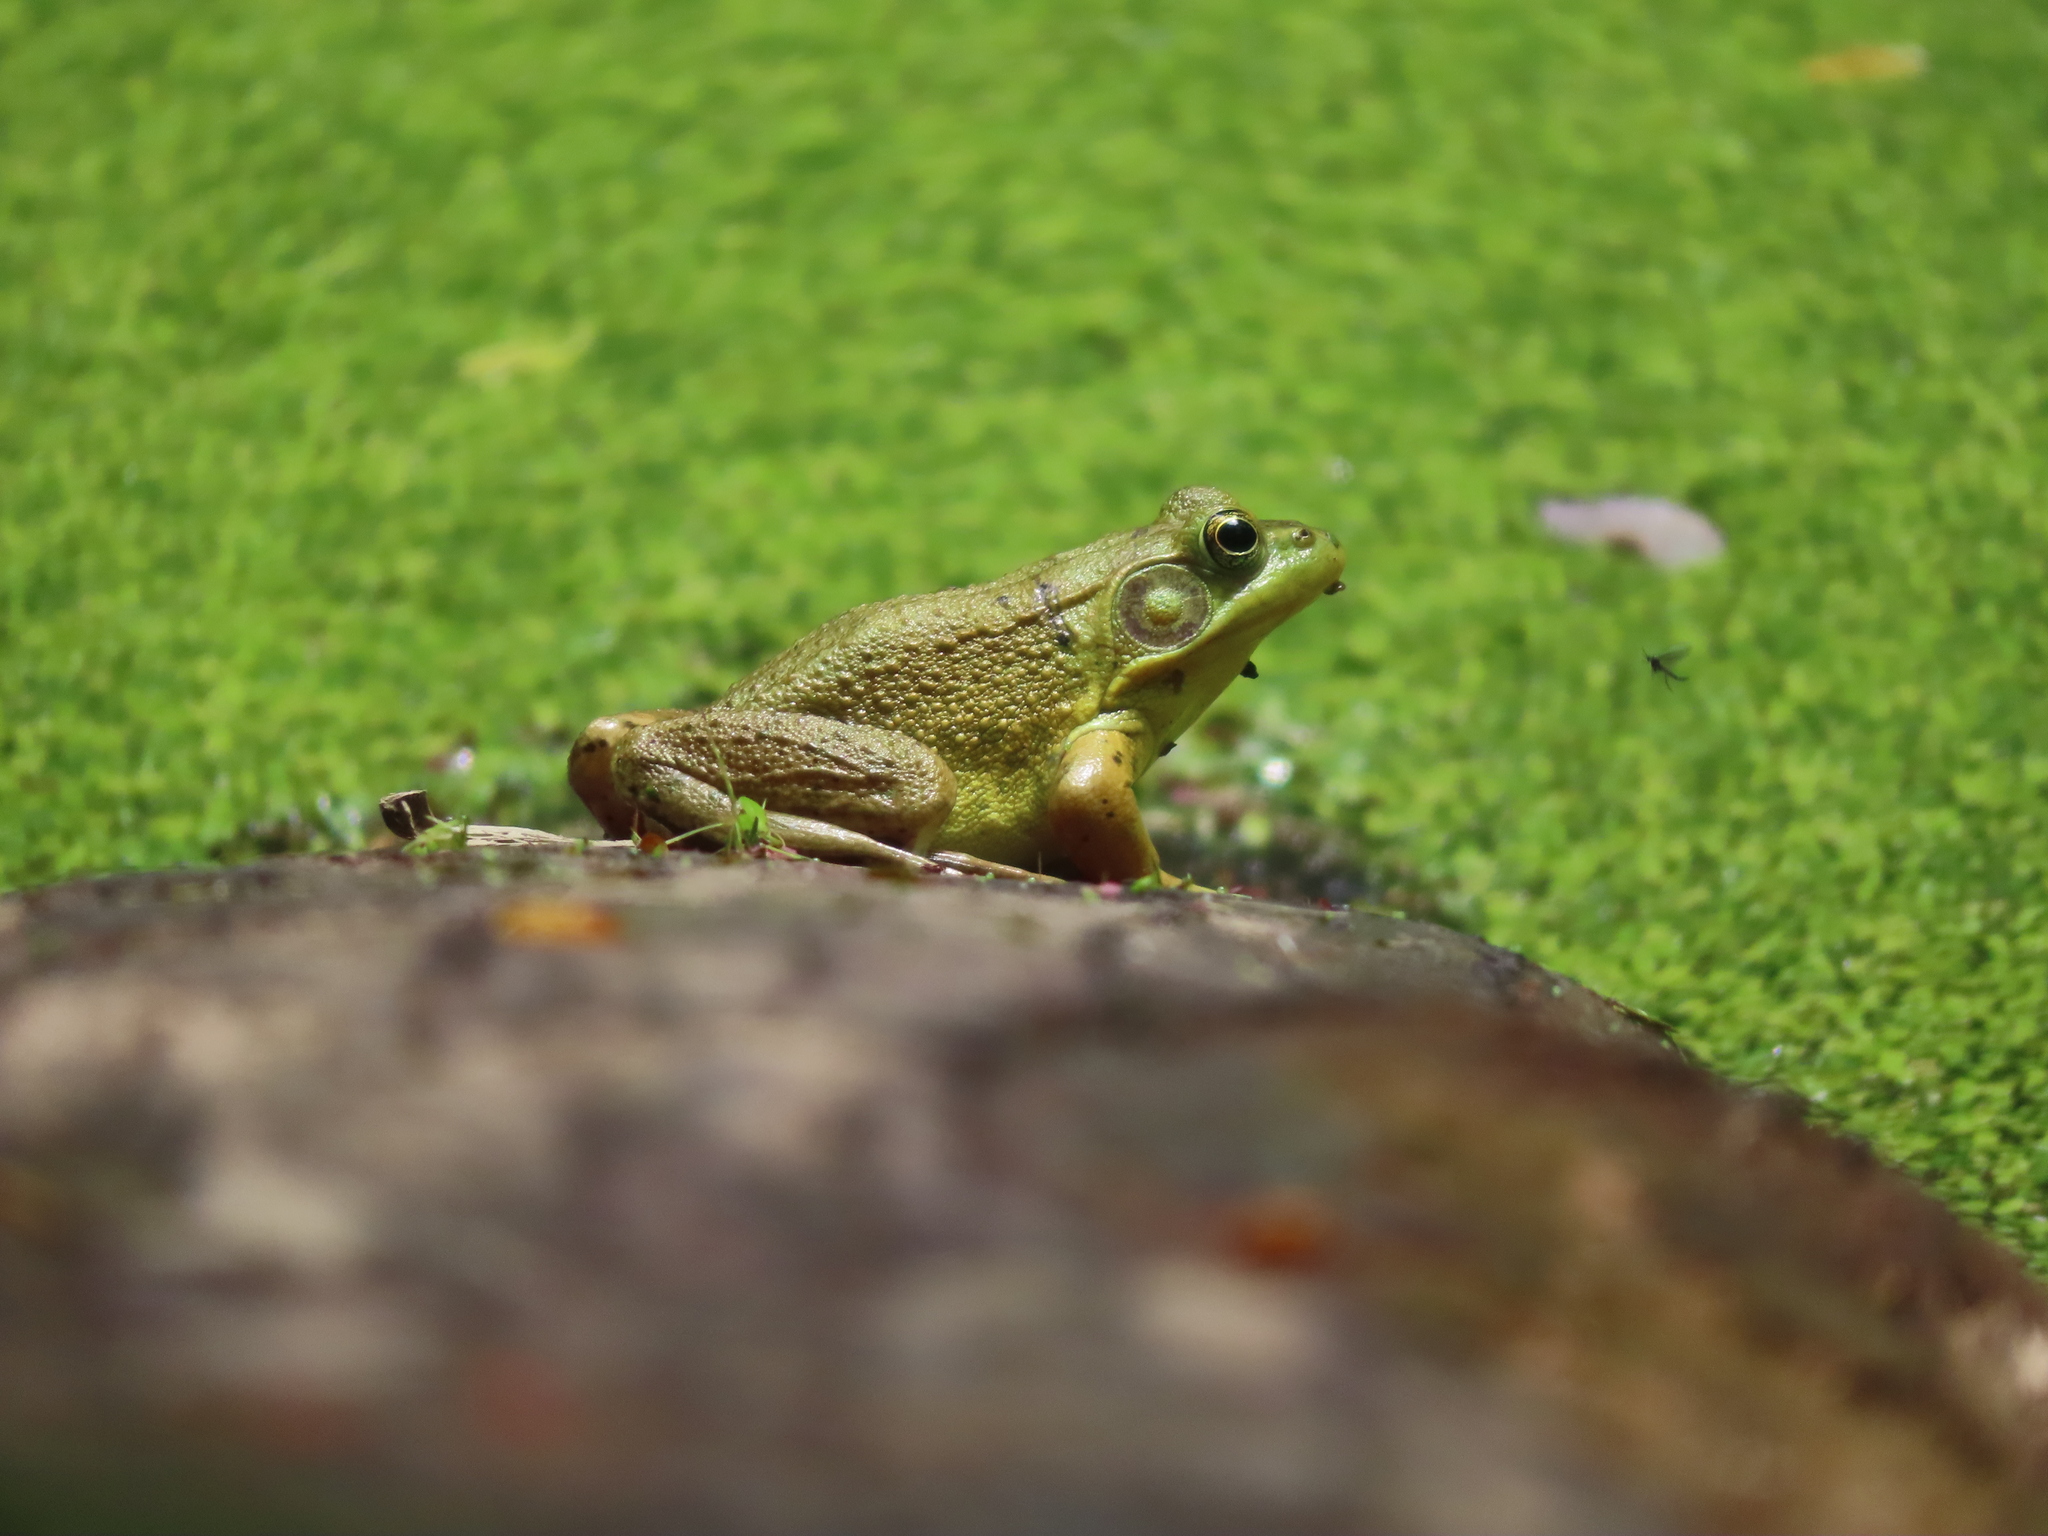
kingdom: Animalia
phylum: Chordata
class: Amphibia
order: Anura
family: Ranidae
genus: Lithobates
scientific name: Lithobates clamitans
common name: Green frog
